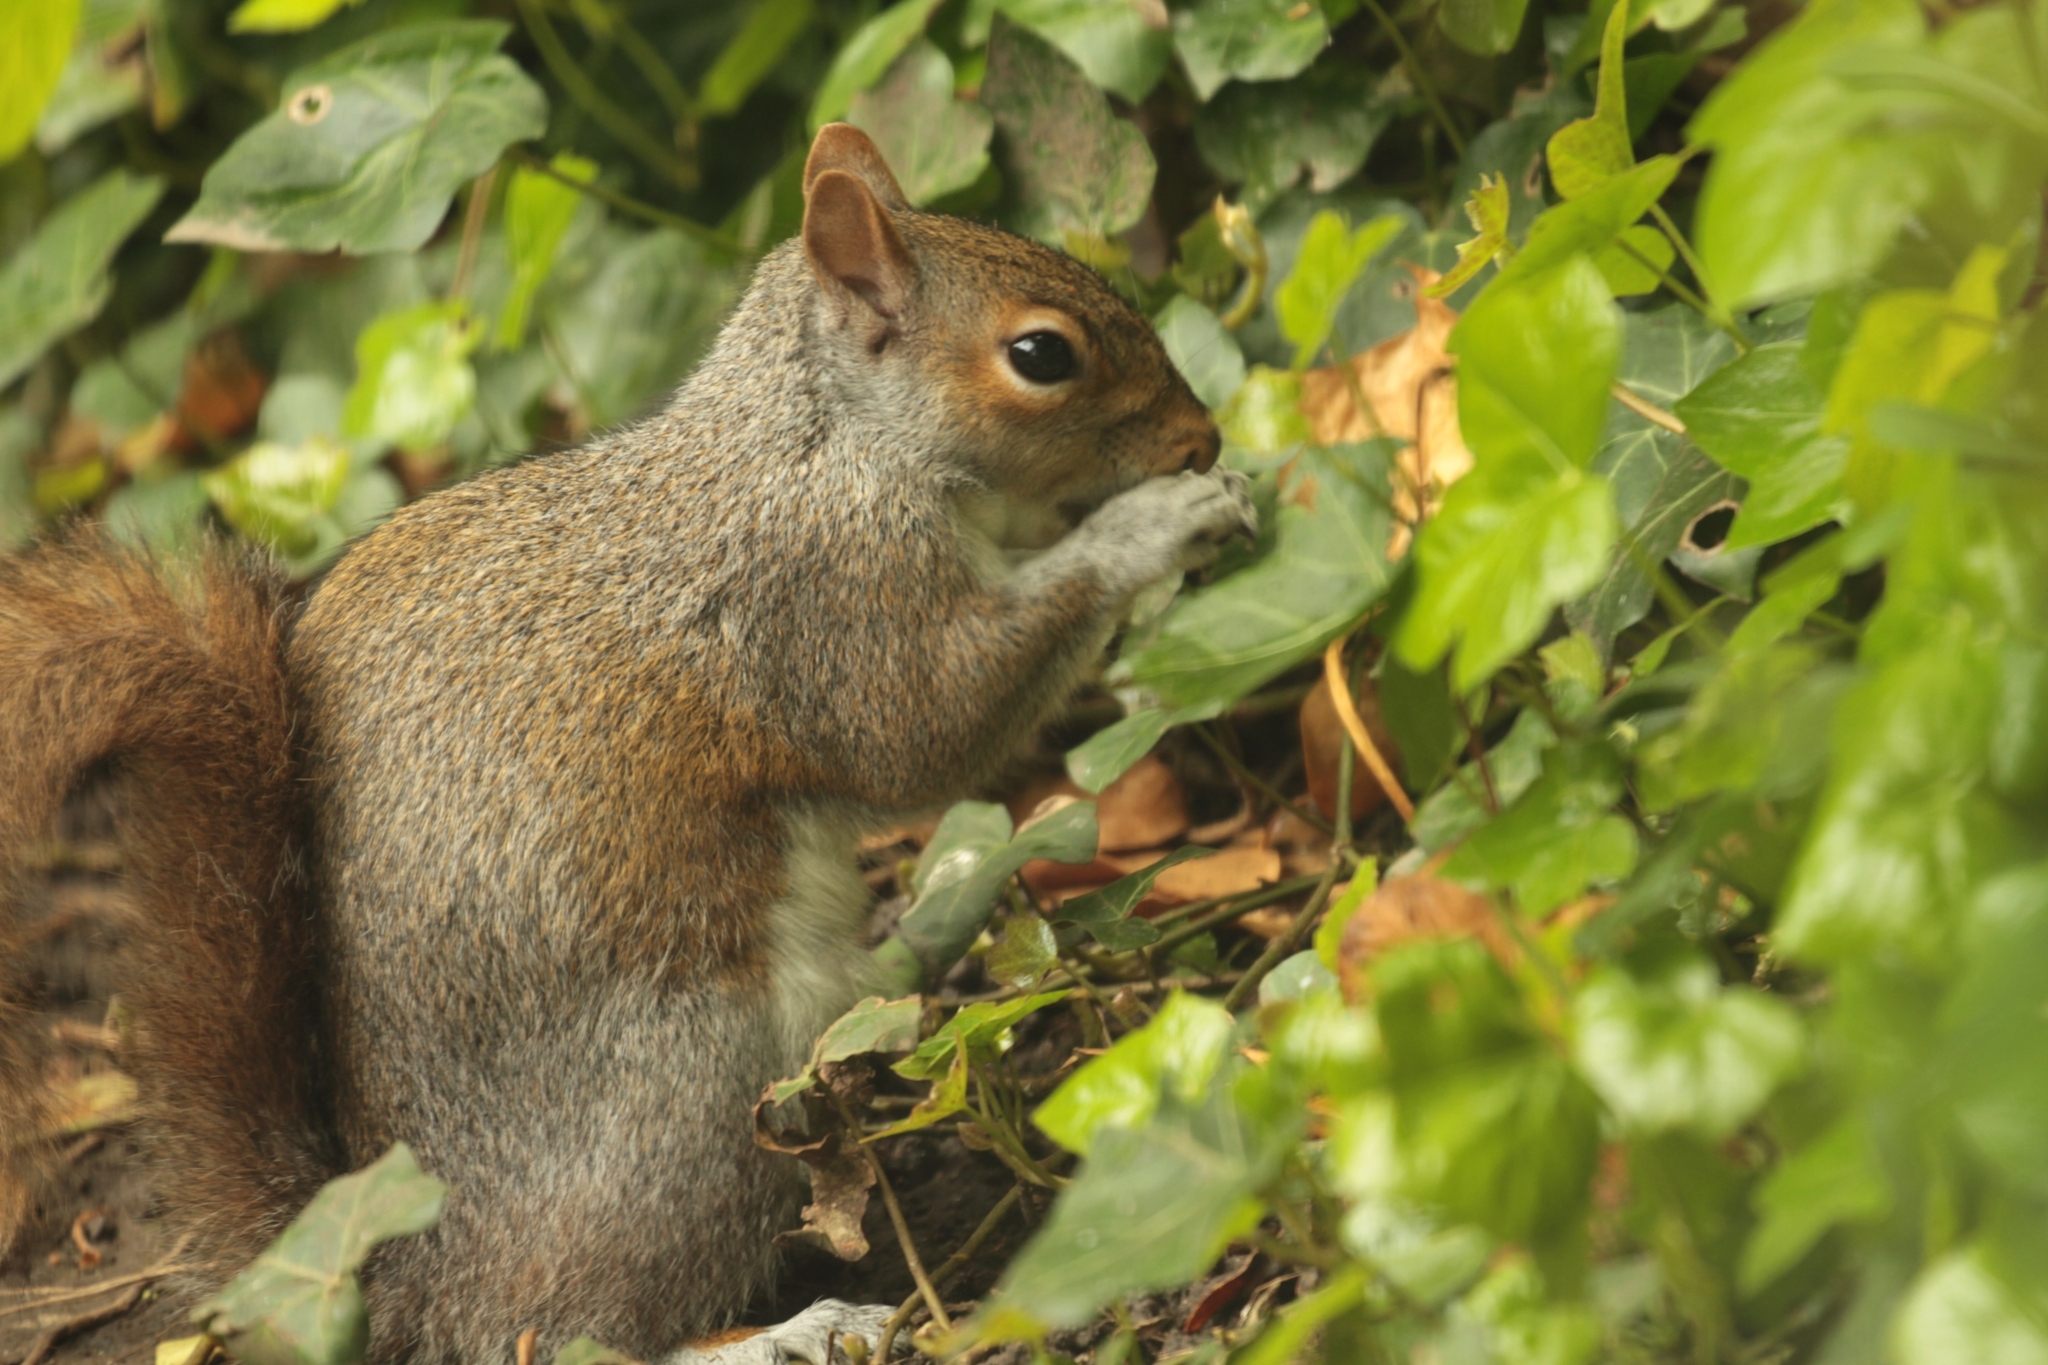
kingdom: Animalia
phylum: Chordata
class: Mammalia
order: Rodentia
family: Sciuridae
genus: Sciurus
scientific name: Sciurus carolinensis
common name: Eastern gray squirrel
